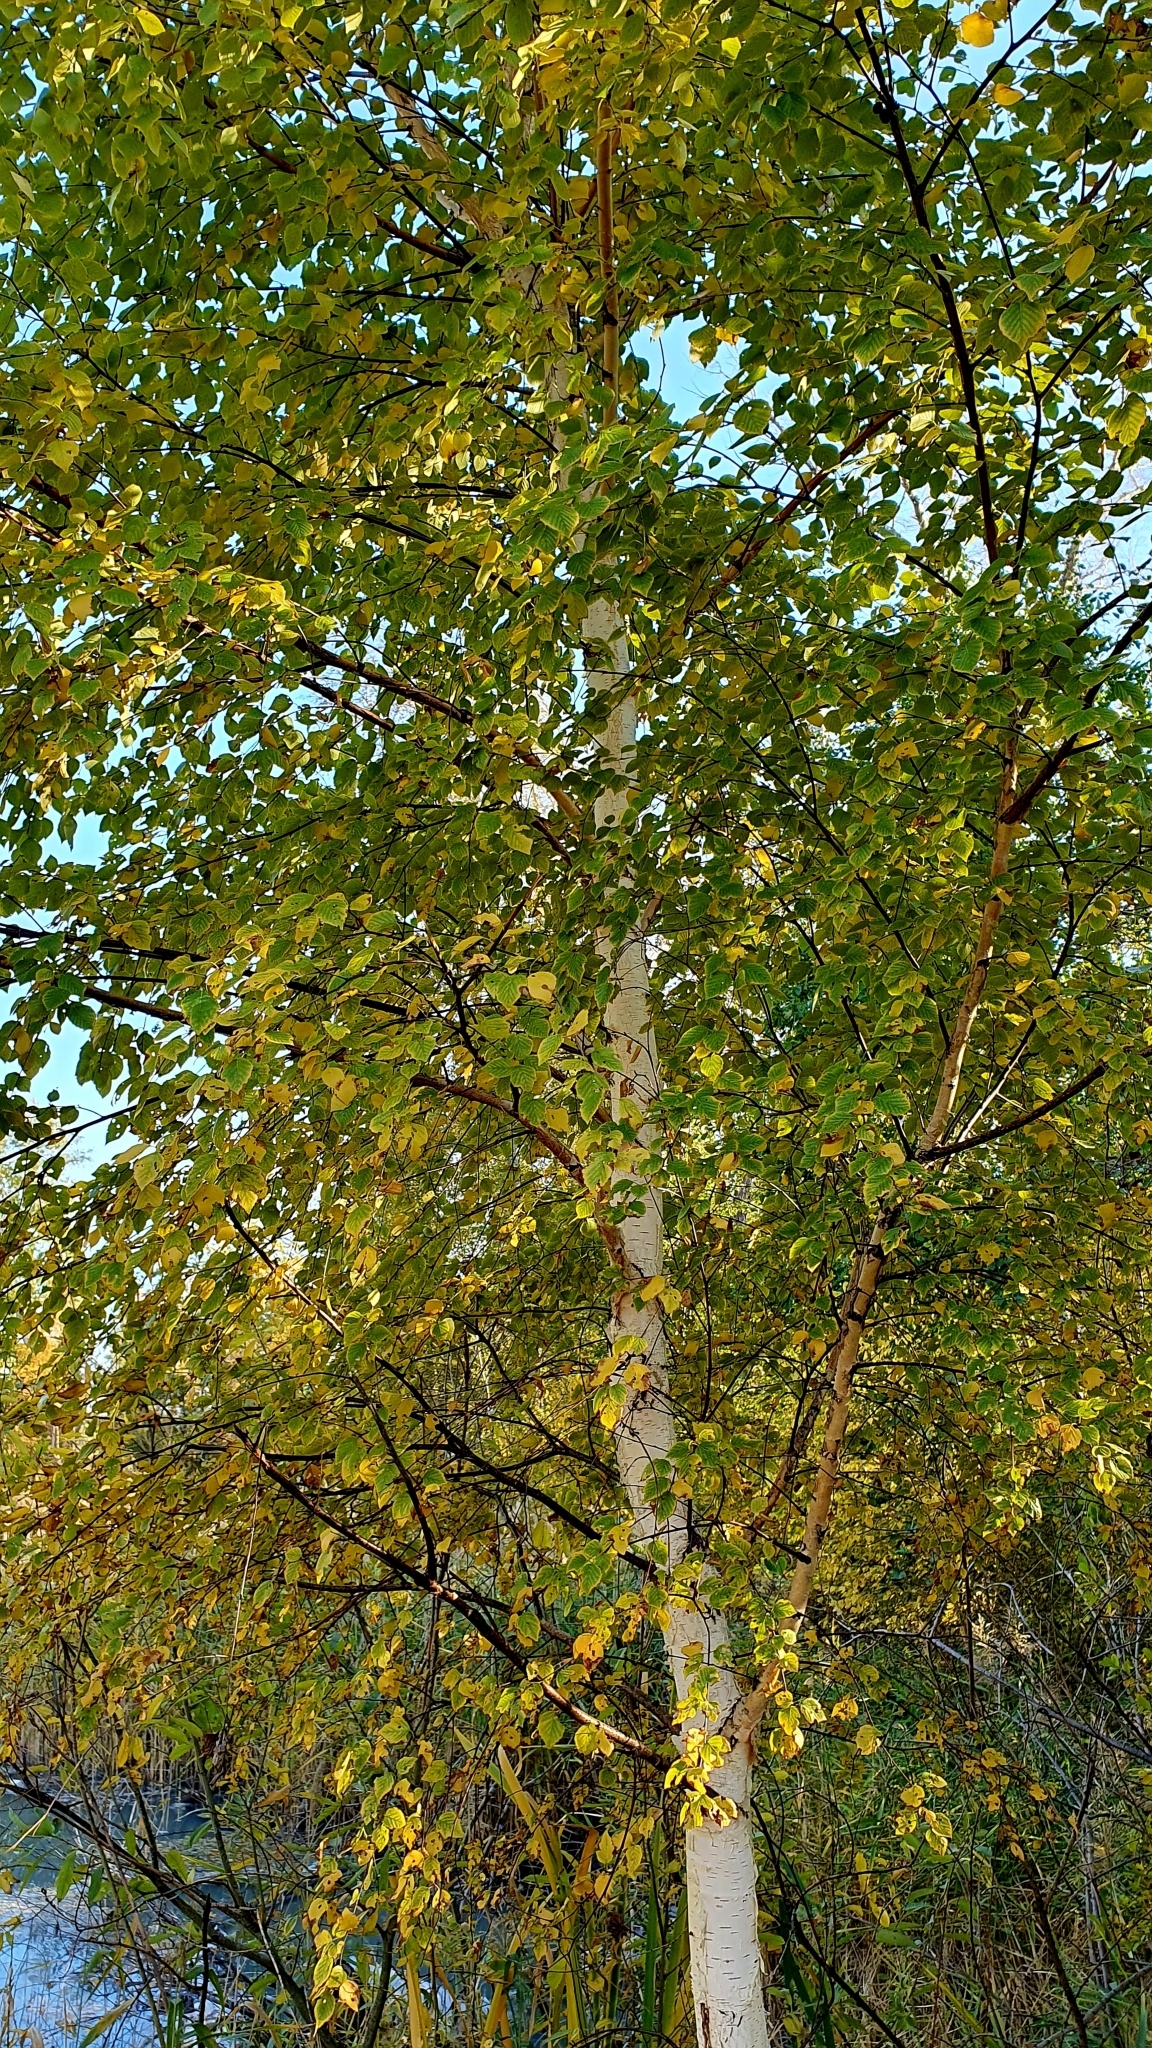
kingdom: Plantae
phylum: Tracheophyta
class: Magnoliopsida
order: Fagales
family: Betulaceae
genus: Betula
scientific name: Betula pendula
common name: Silver birch
